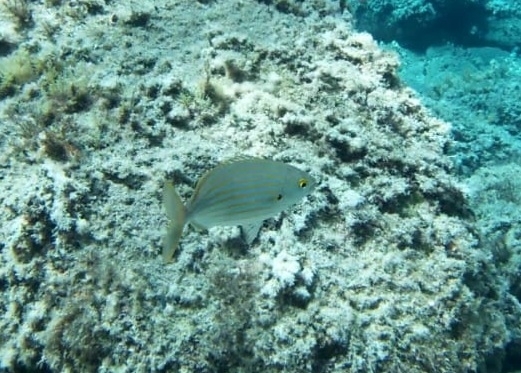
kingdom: Animalia
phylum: Chordata
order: Perciformes
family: Sparidae
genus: Sarpa
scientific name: Sarpa salpa
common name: Salema
